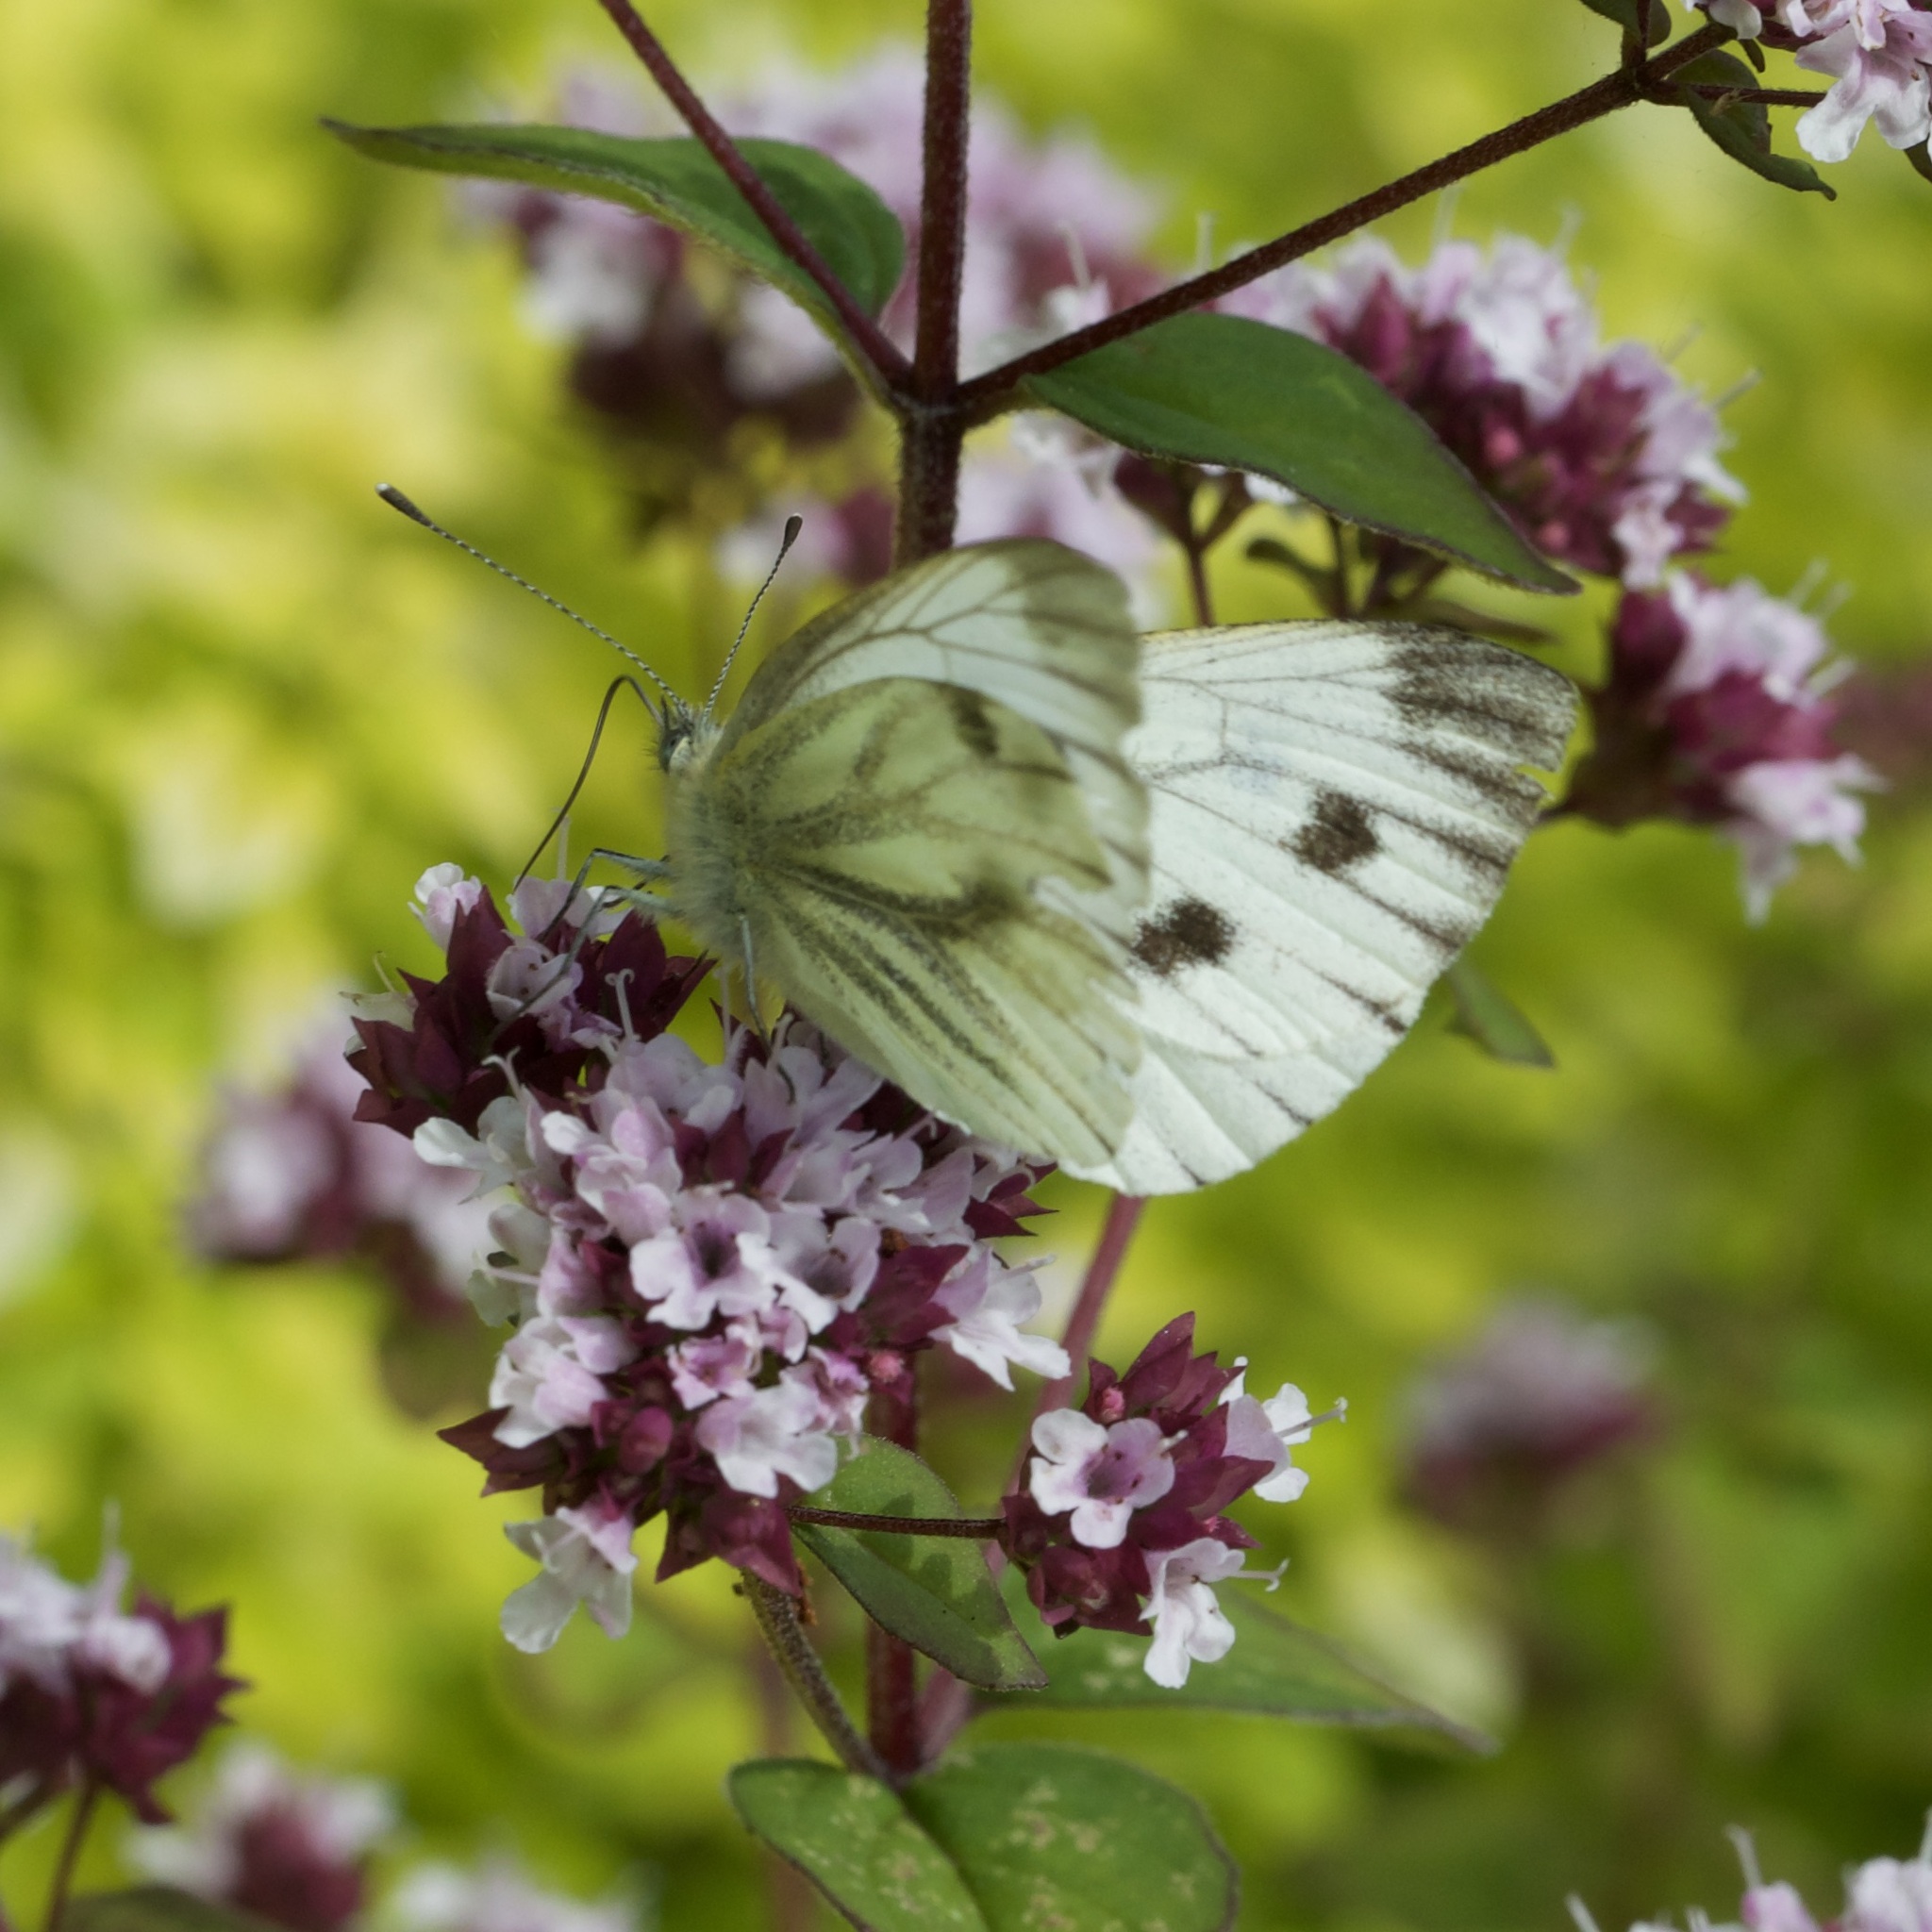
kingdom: Animalia
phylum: Arthropoda
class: Insecta
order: Lepidoptera
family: Pieridae
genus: Pieris
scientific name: Pieris napi
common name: Green-veined white
